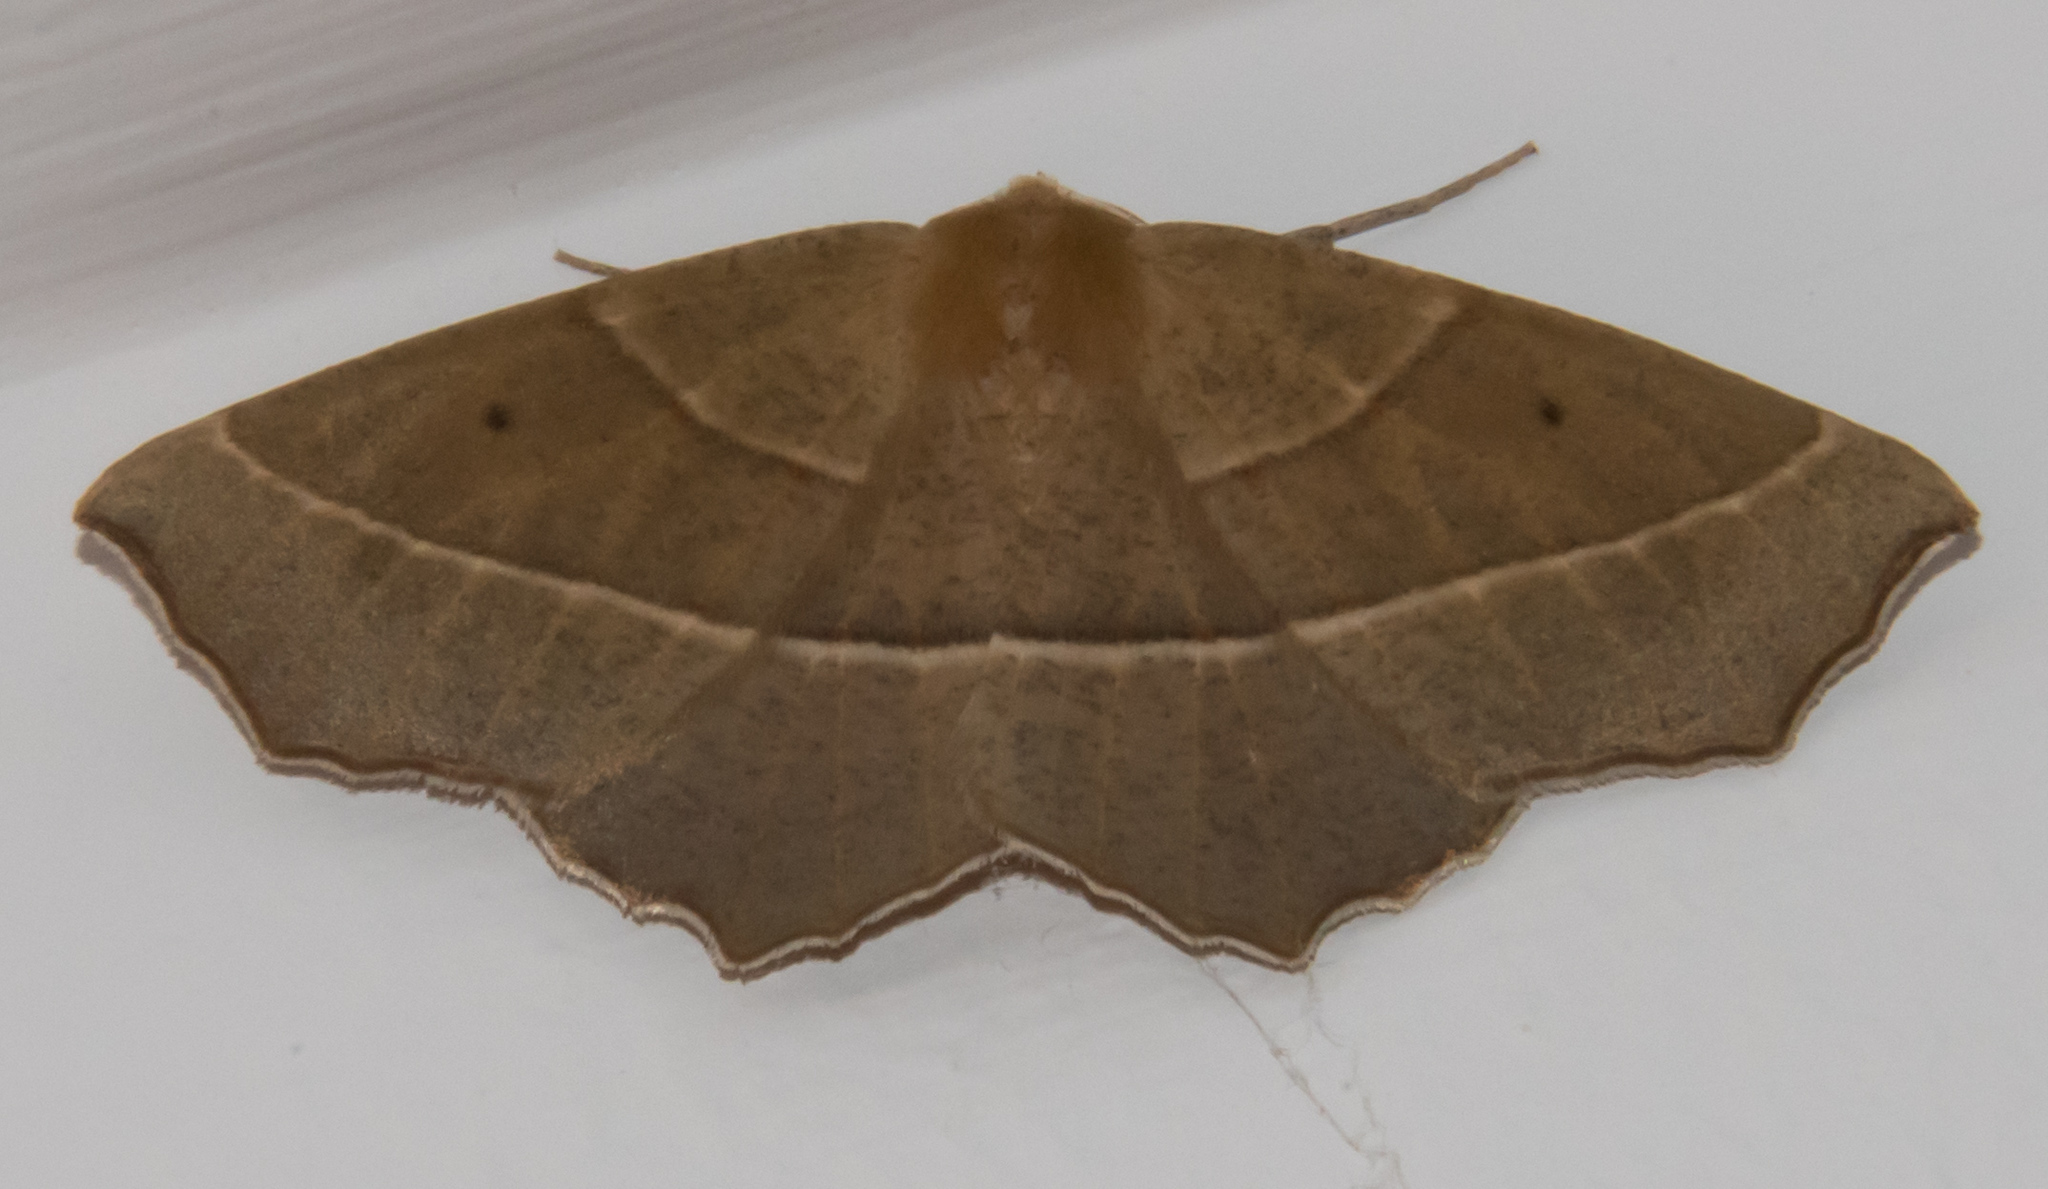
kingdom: Animalia
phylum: Arthropoda
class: Insecta
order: Lepidoptera
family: Geometridae
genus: Gerinia
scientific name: Gerinia honoraria
